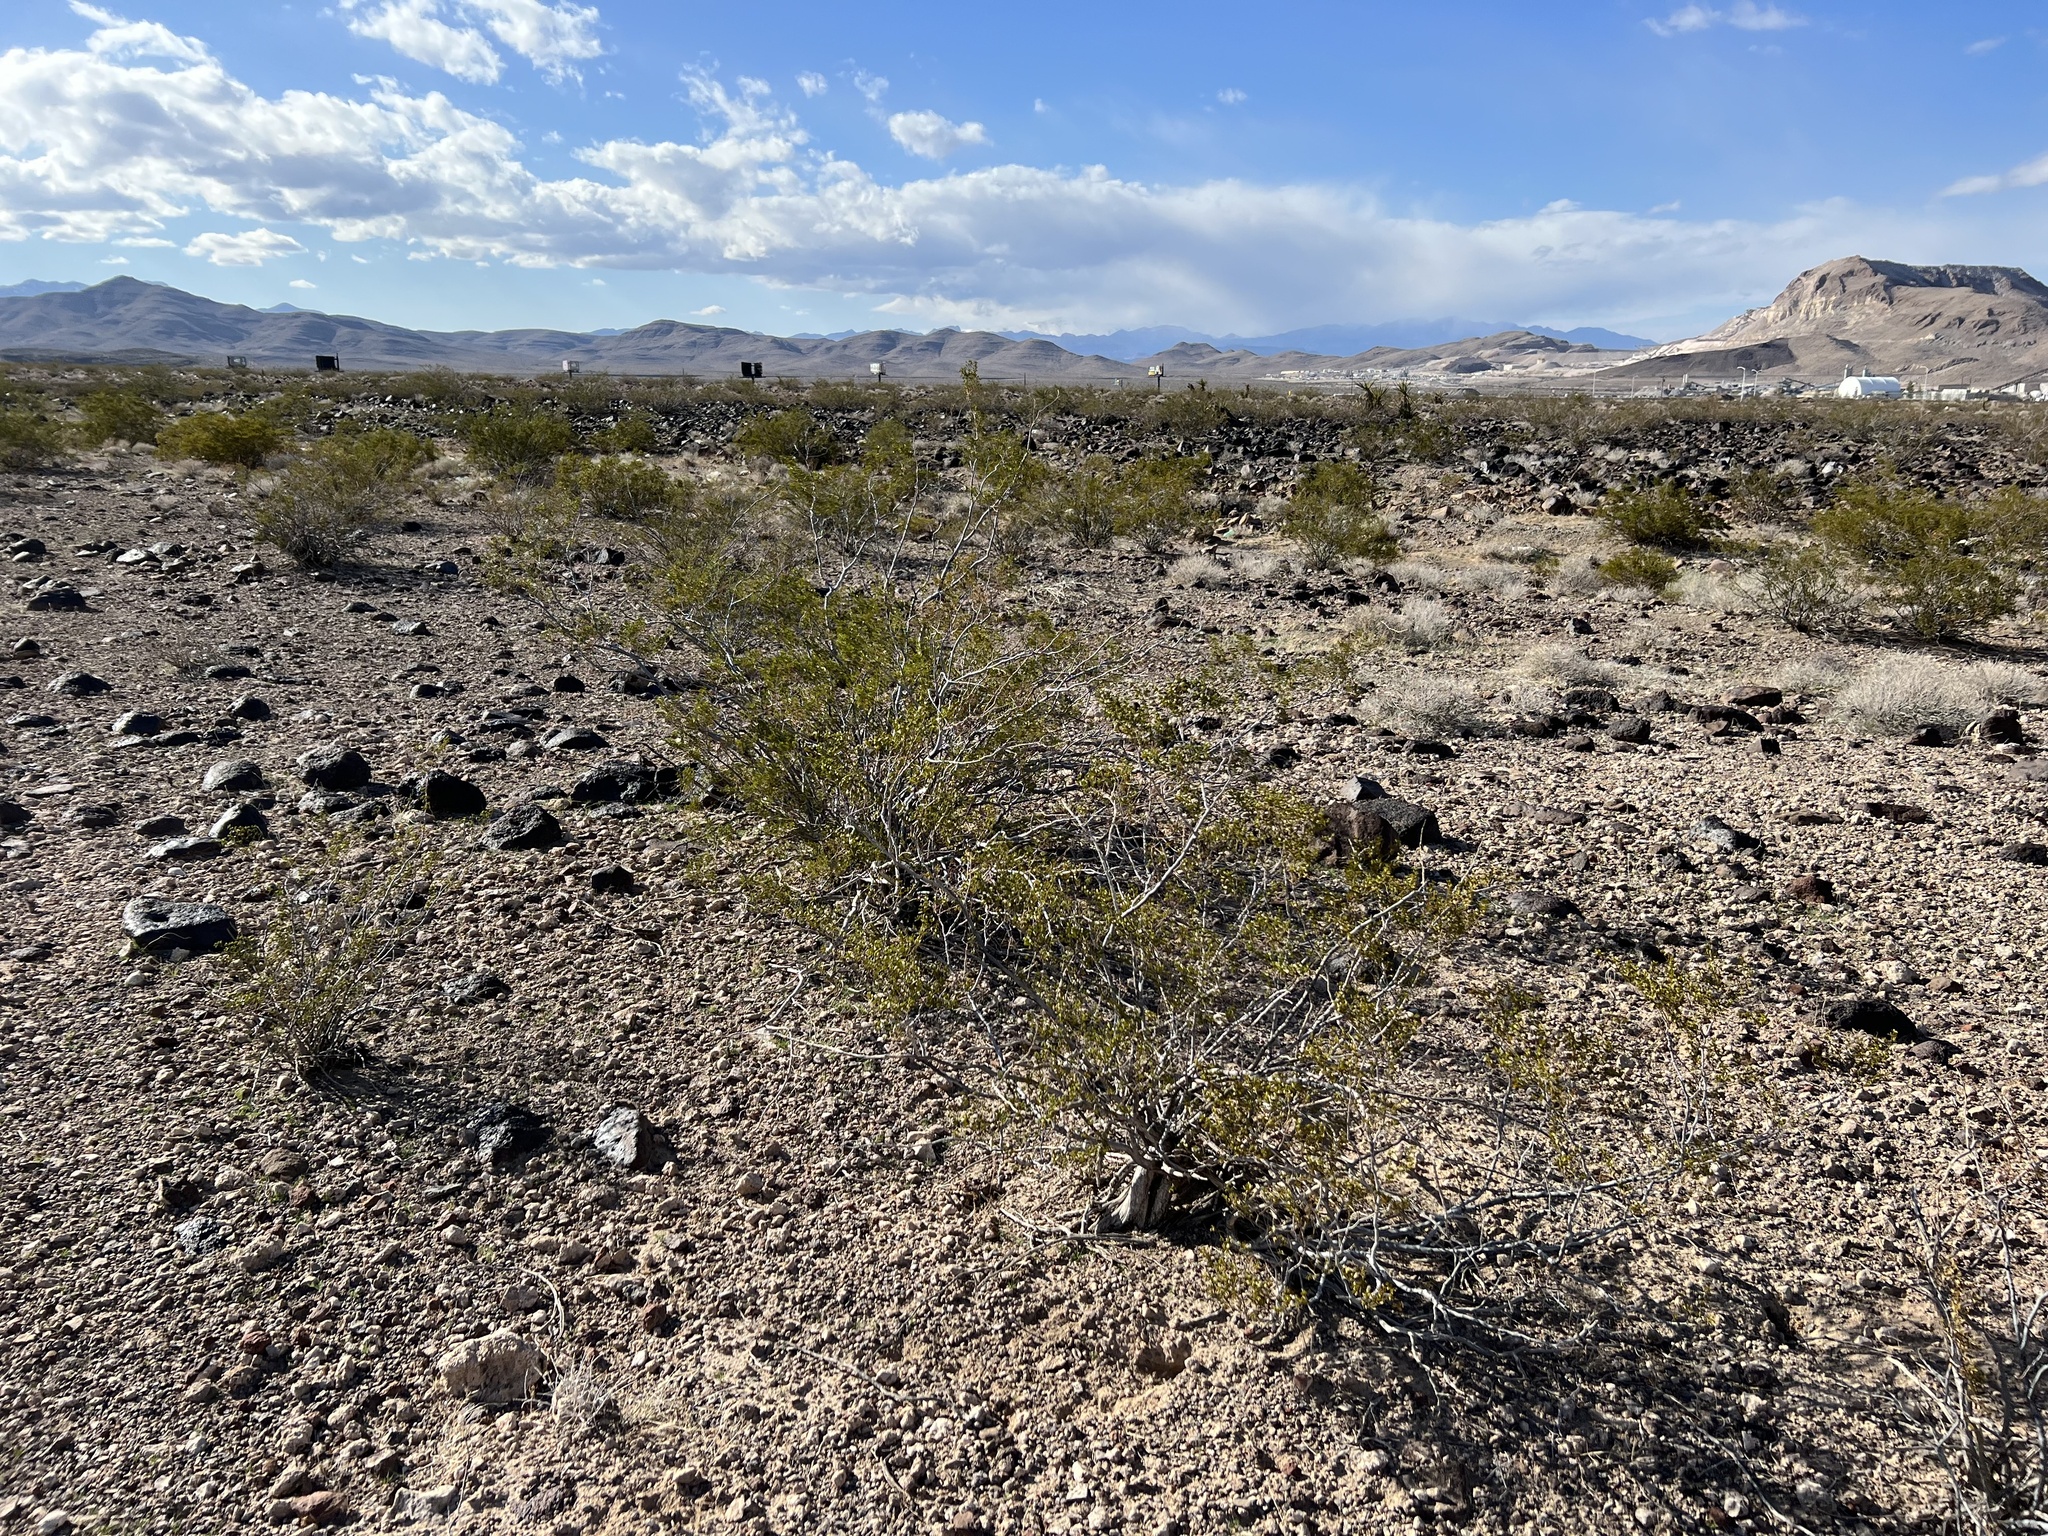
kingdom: Plantae
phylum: Tracheophyta
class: Magnoliopsida
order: Zygophyllales
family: Zygophyllaceae
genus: Larrea
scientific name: Larrea tridentata
